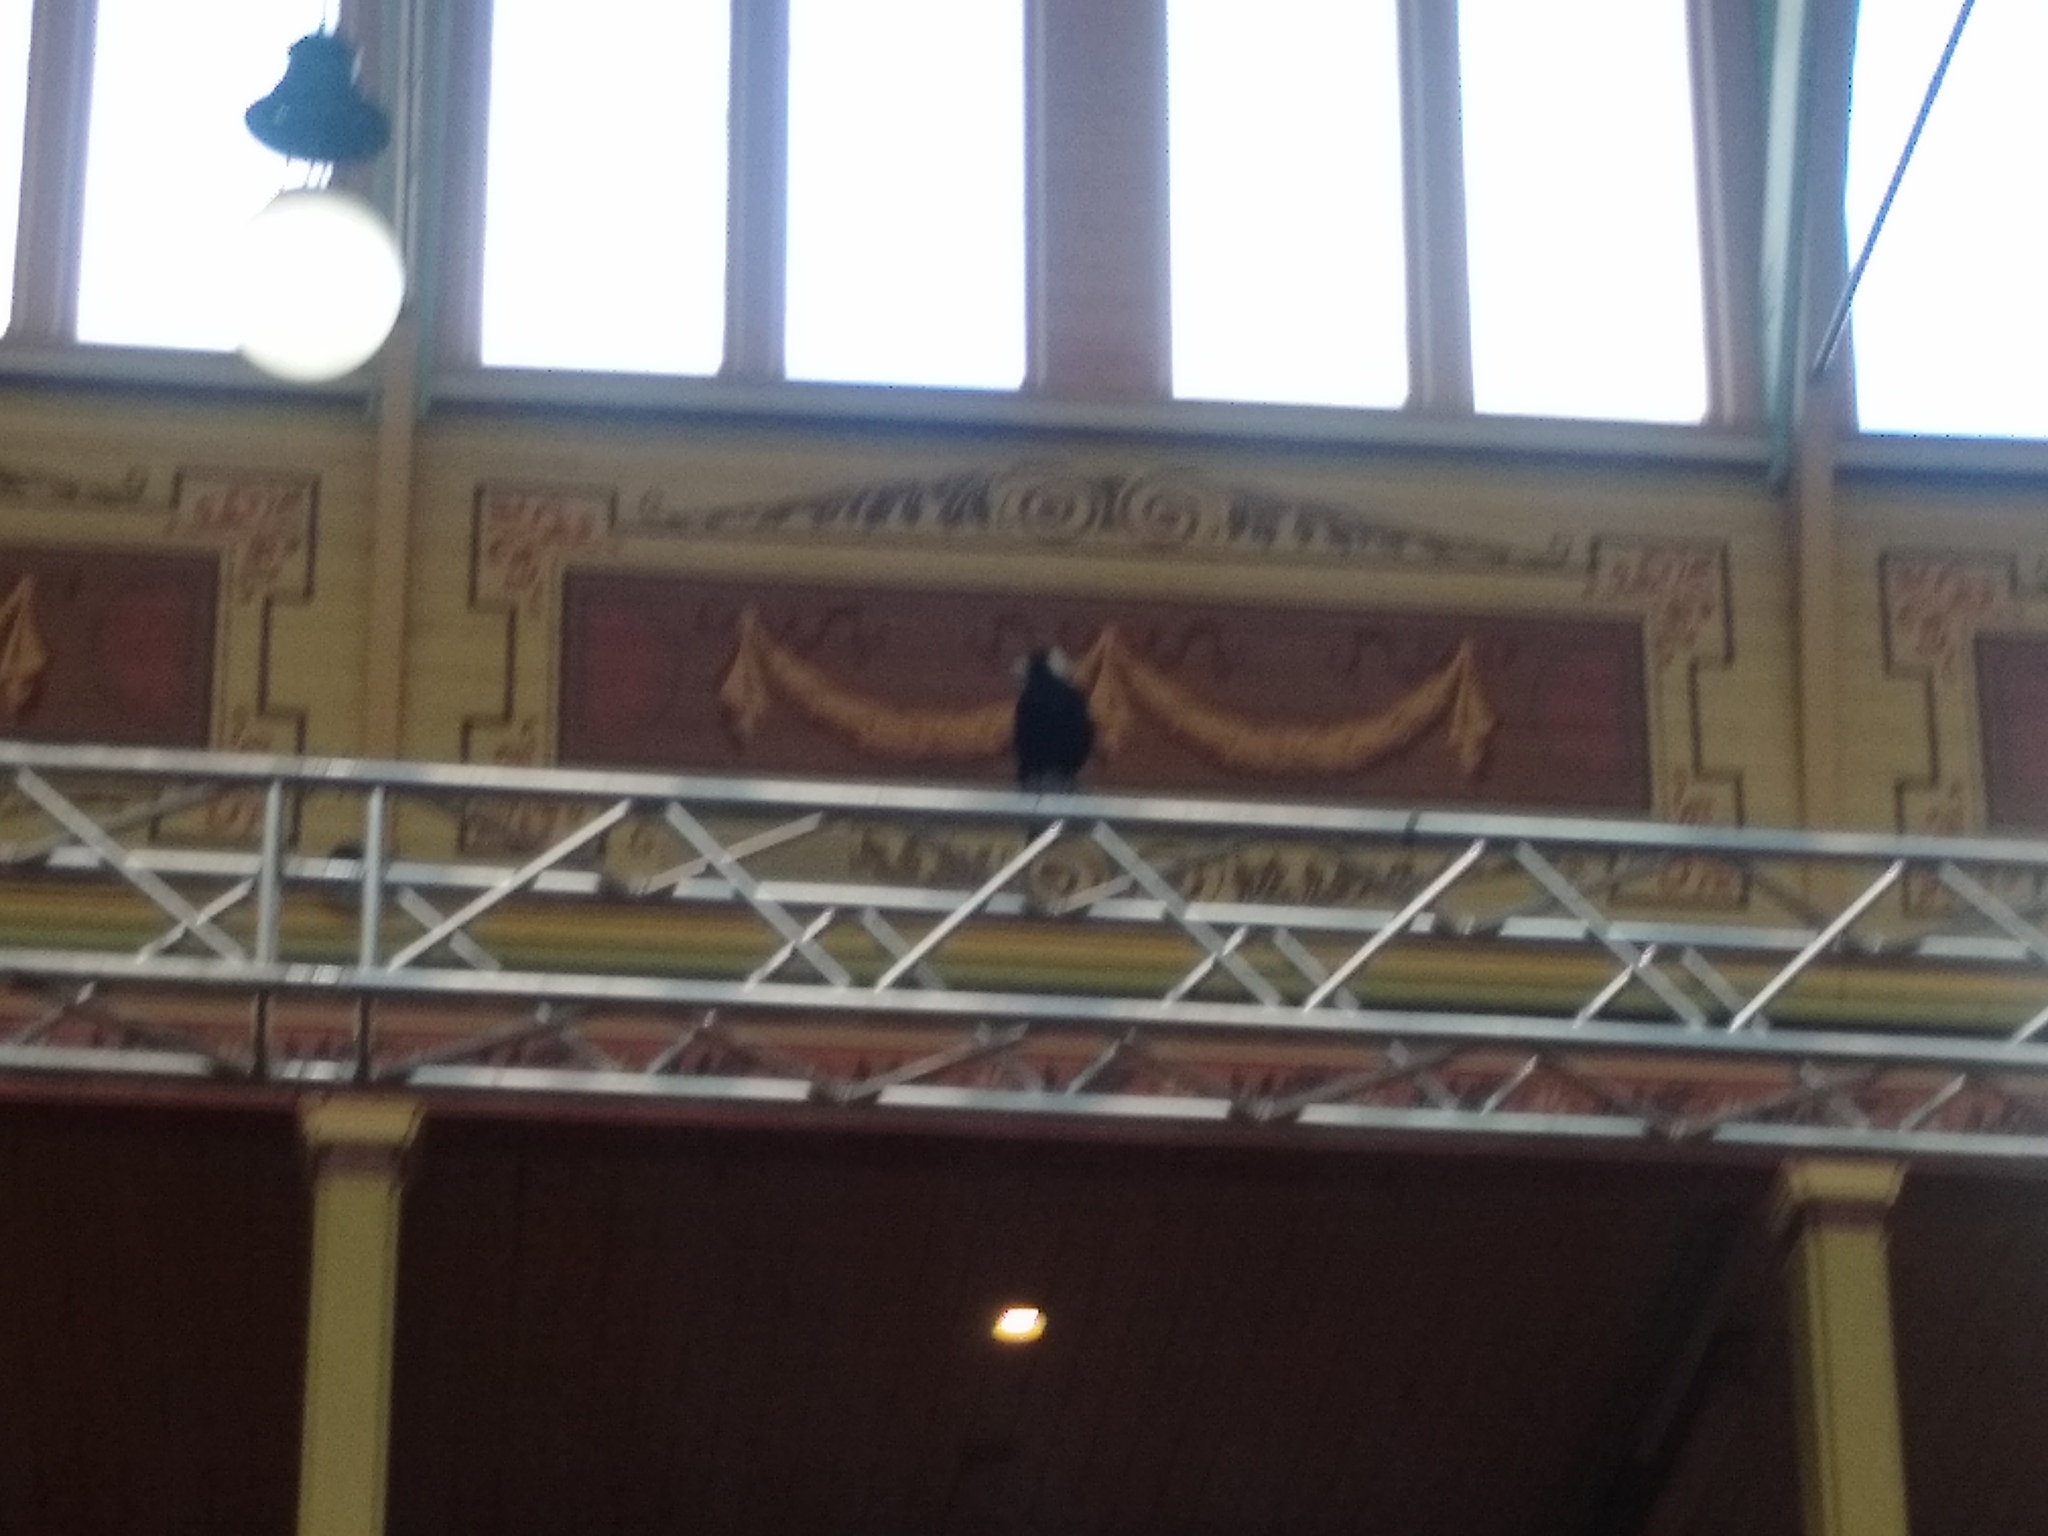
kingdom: Animalia
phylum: Chordata
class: Aves
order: Passeriformes
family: Cracticidae
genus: Gymnorhina
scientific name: Gymnorhina tibicen
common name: Australian magpie
